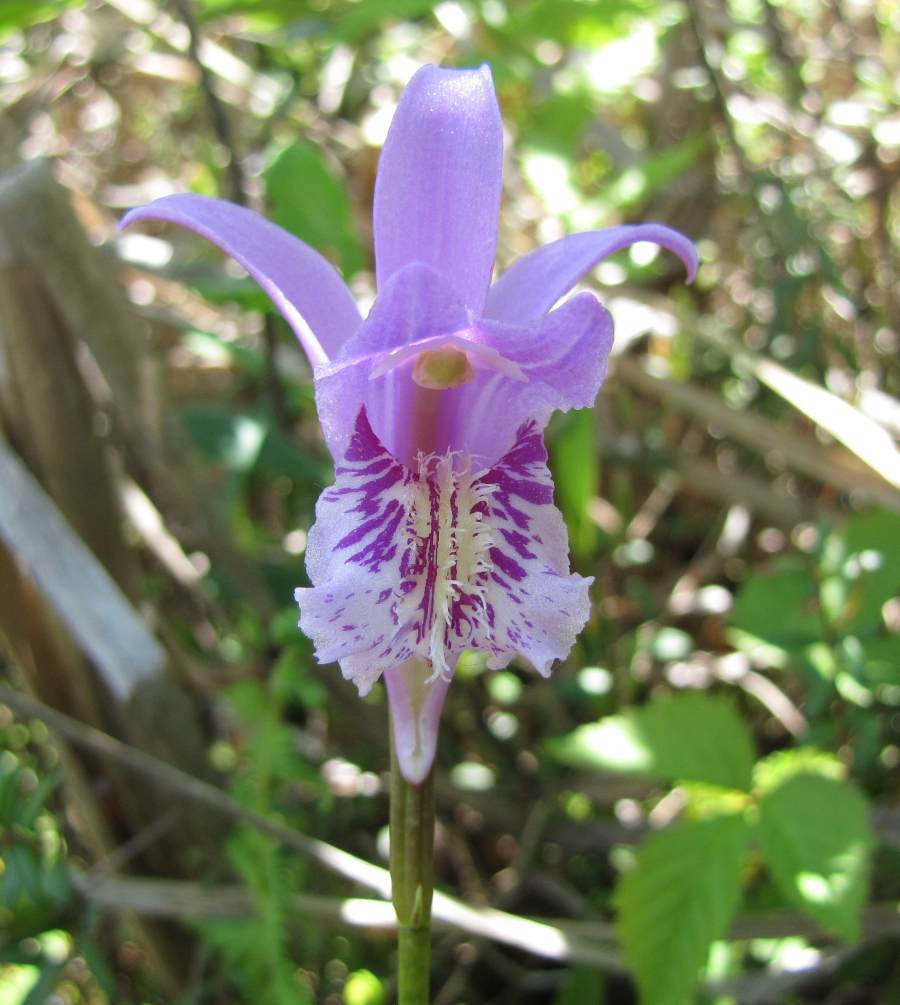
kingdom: Plantae
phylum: Tracheophyta
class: Liliopsida
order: Asparagales
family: Orchidaceae
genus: Arethusa
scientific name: Arethusa bulbosa
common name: Arethusa
